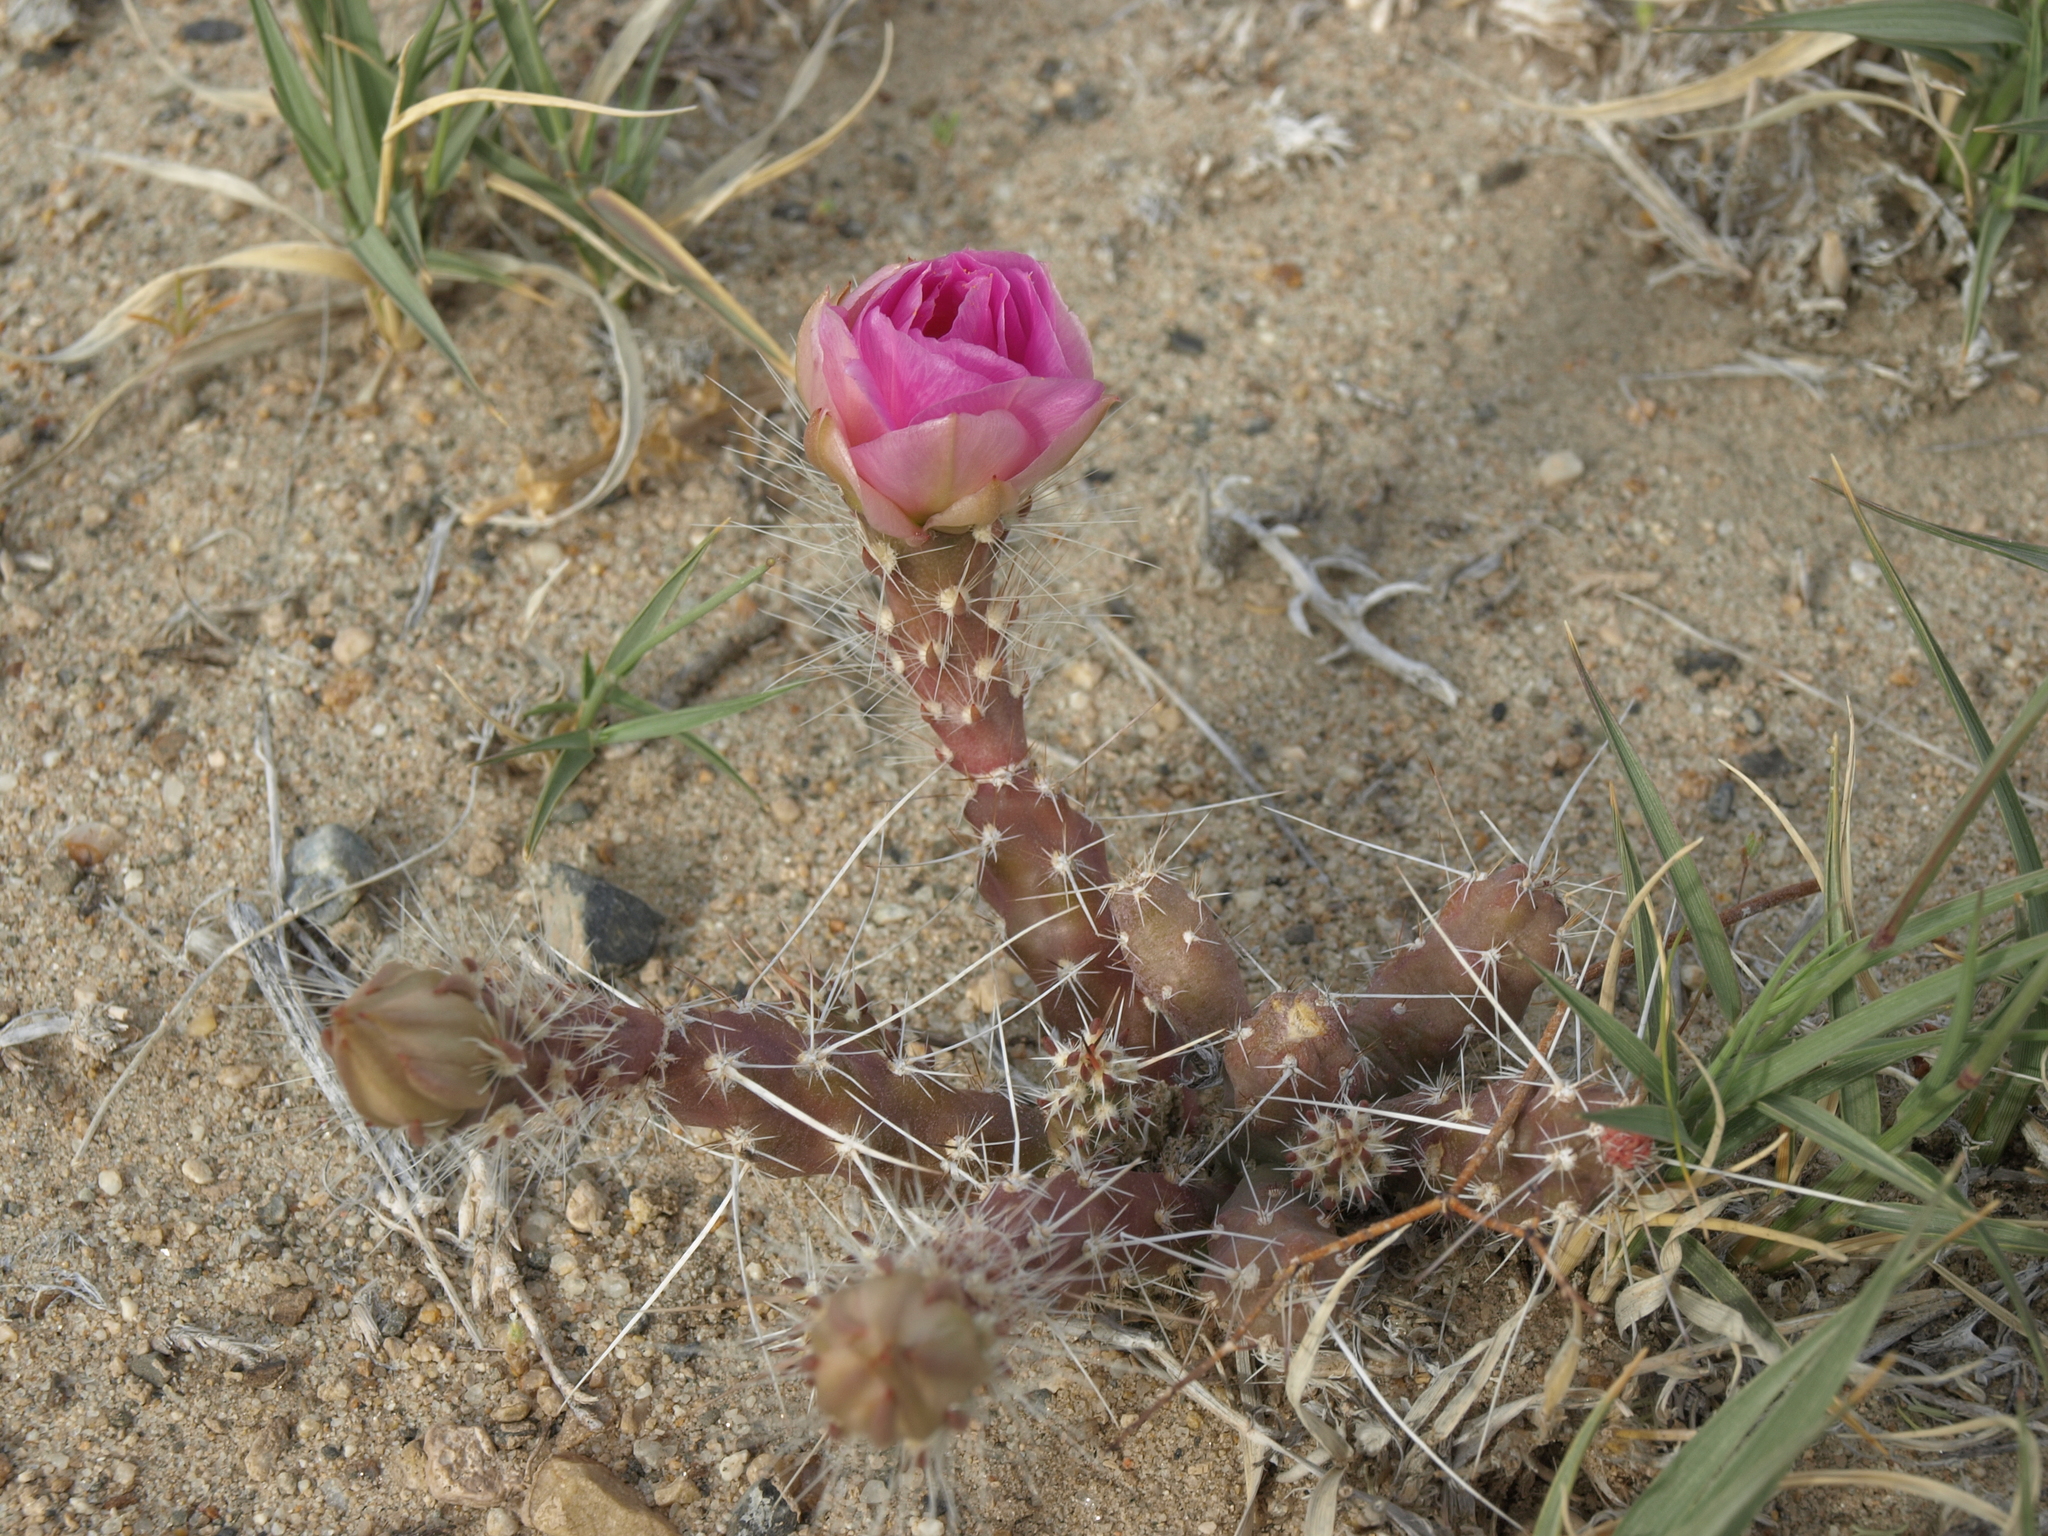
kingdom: Plantae
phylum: Tracheophyta
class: Magnoliopsida
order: Caryophyllales
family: Cactaceae
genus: Micropuntia
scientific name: Micropuntia pulchella
